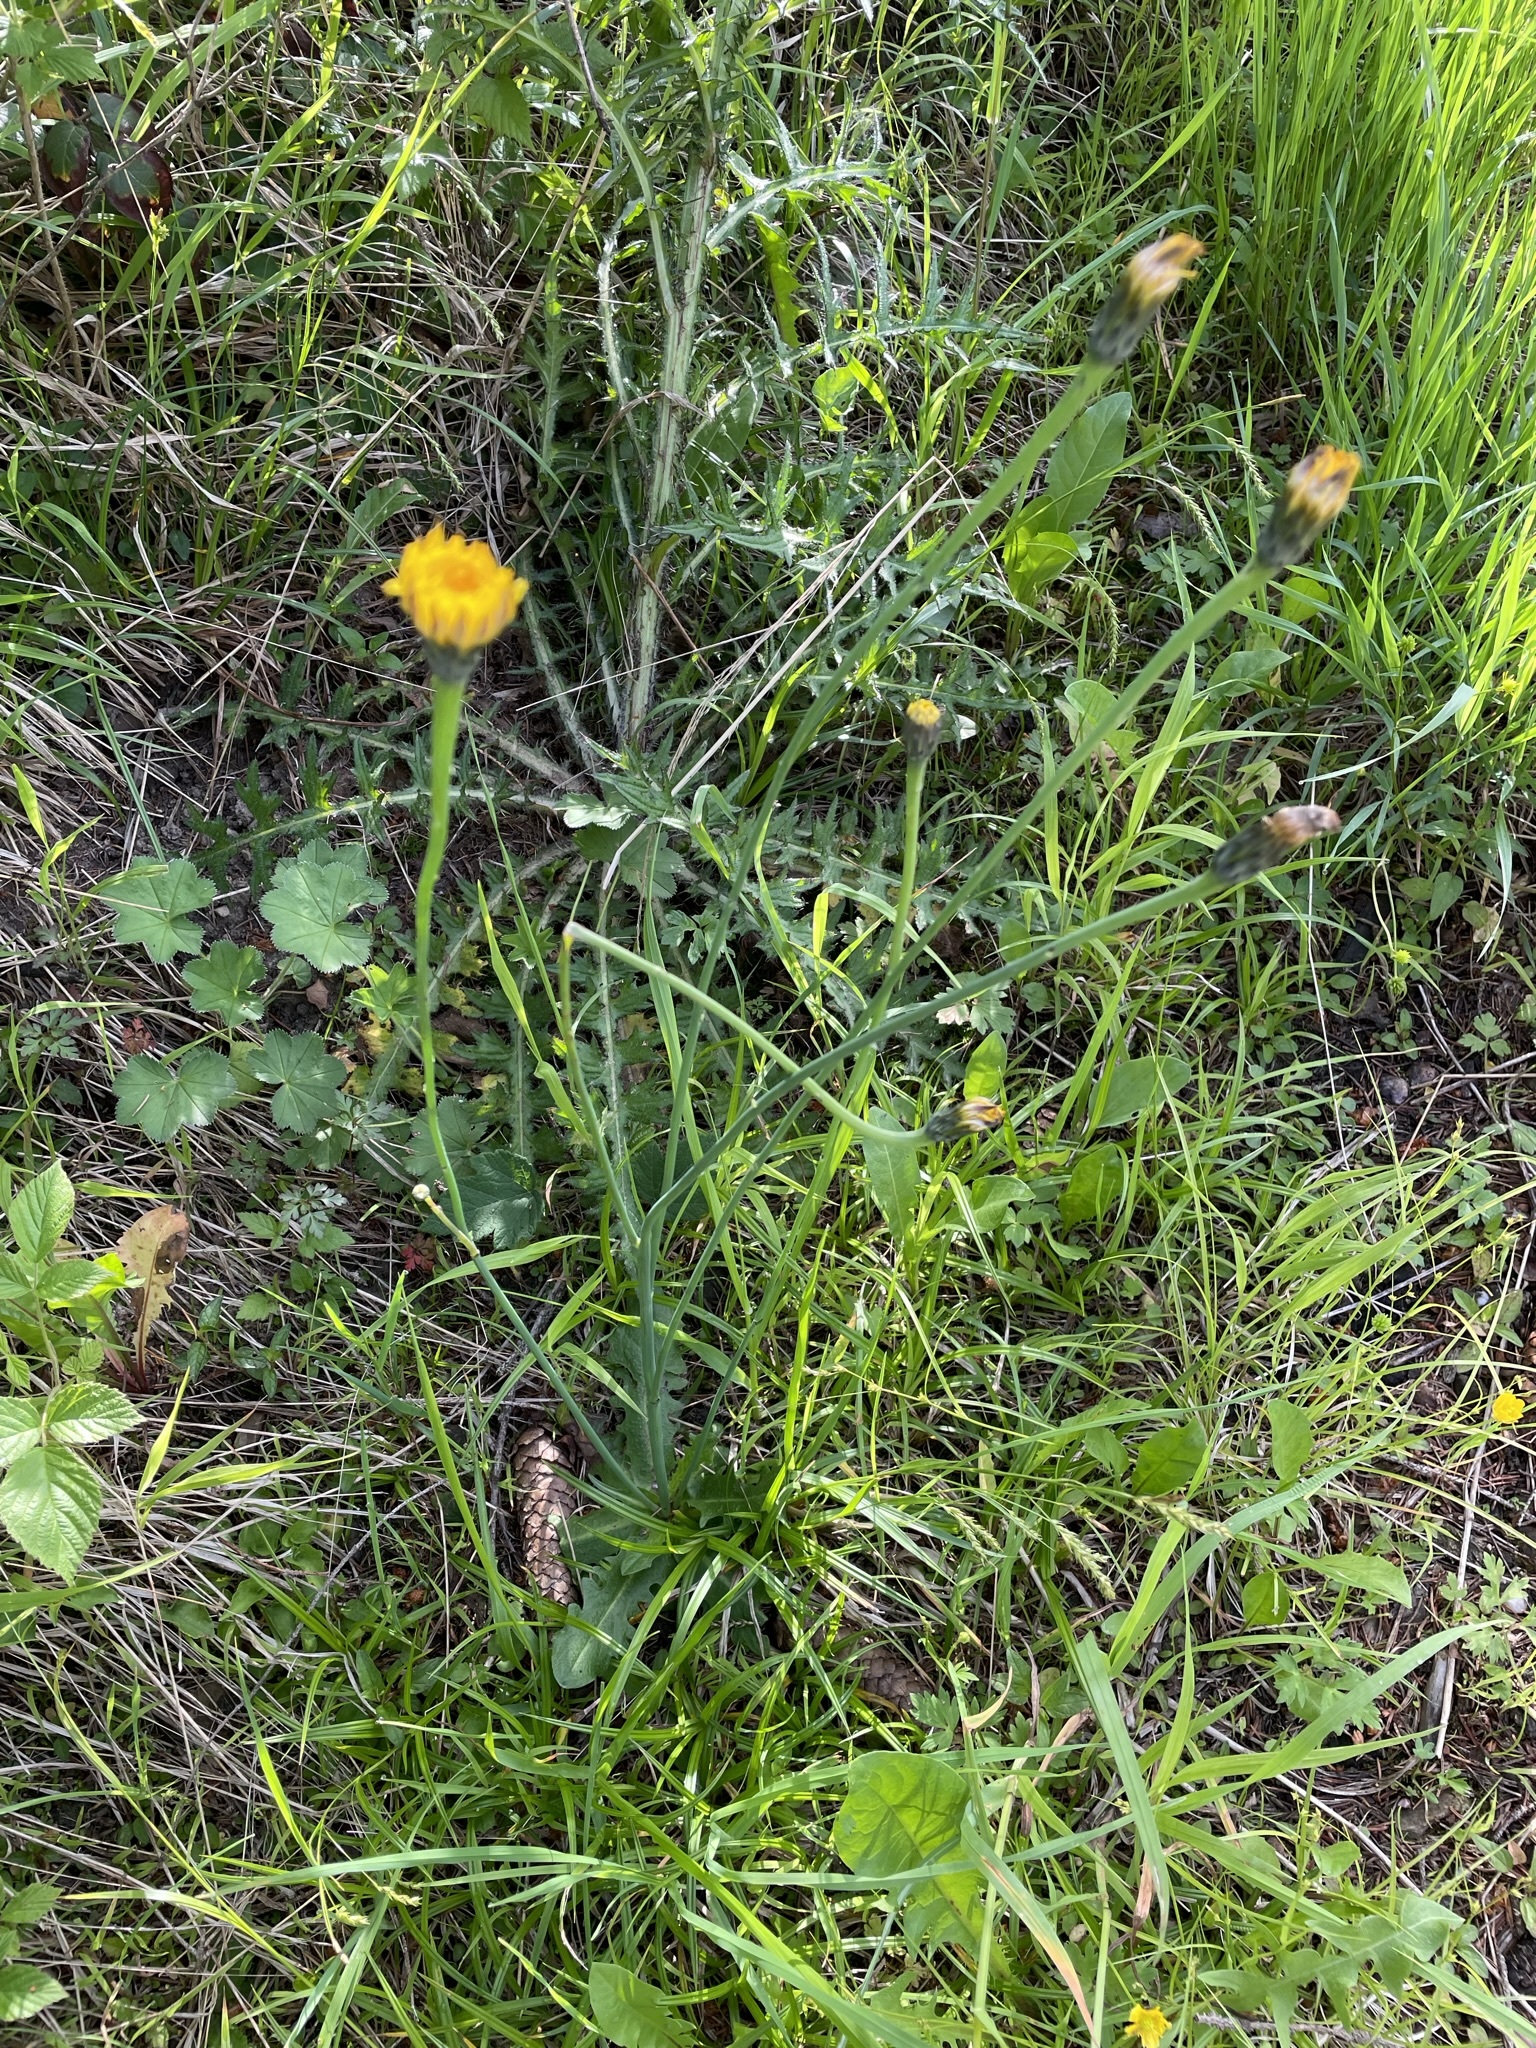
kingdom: Plantae
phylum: Tracheophyta
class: Magnoliopsida
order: Asterales
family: Asteraceae
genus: Hypochaeris
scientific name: Hypochaeris radicata
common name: Flatweed
